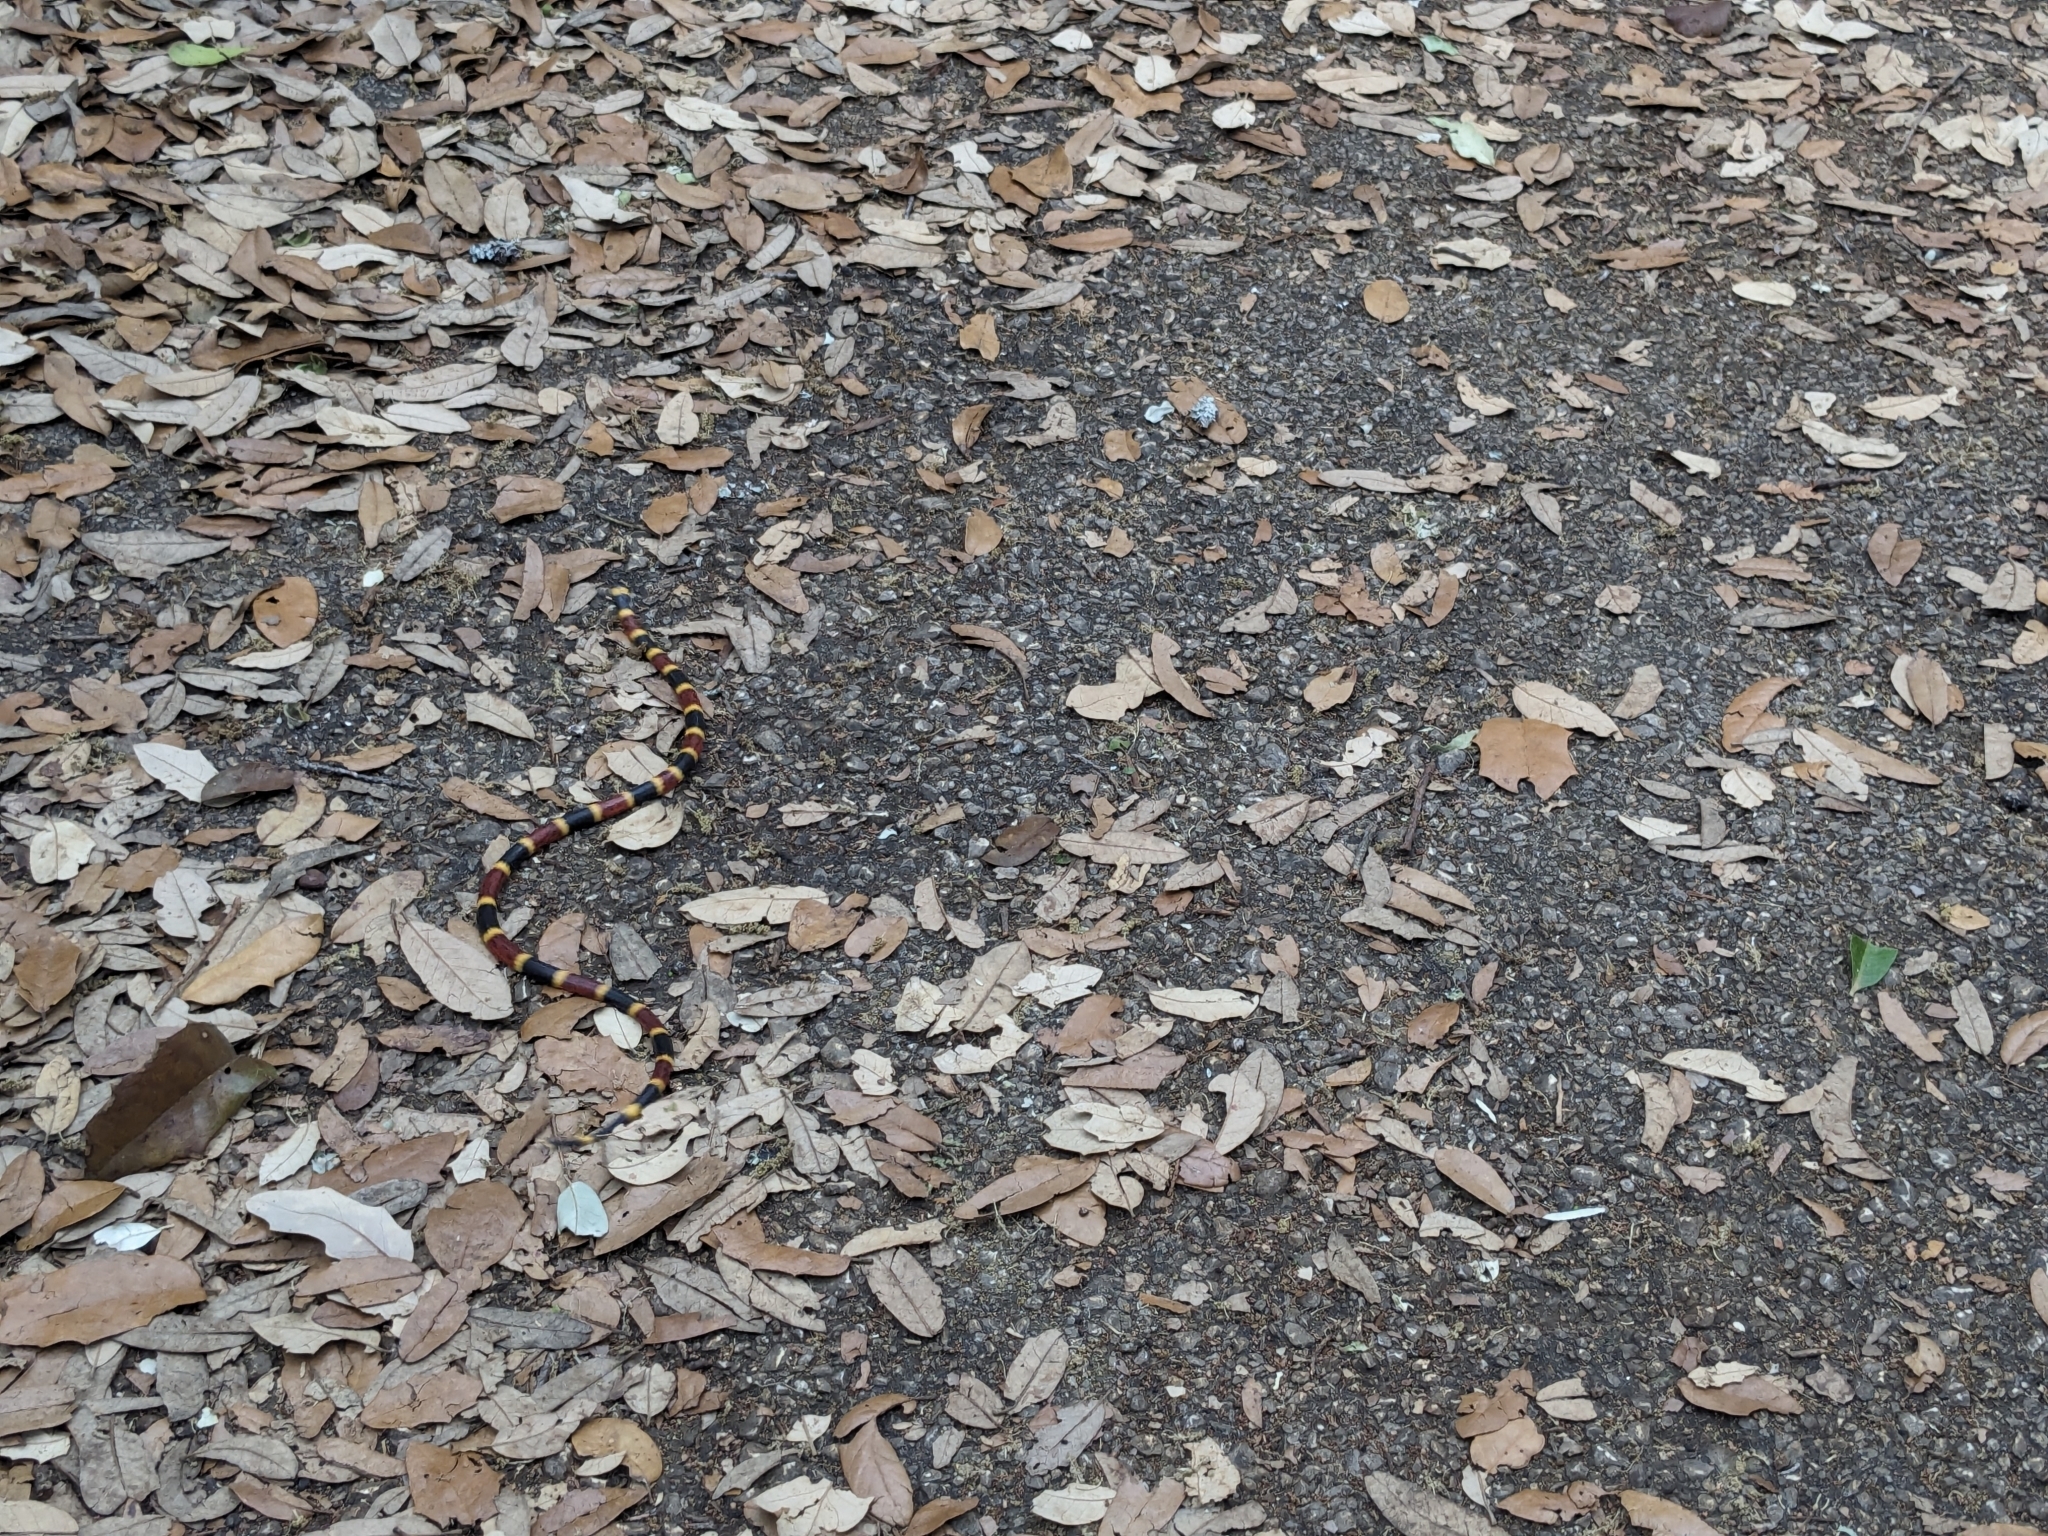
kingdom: Animalia
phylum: Chordata
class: Squamata
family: Elapidae
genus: Micrurus
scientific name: Micrurus tener
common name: Texas coral snake
